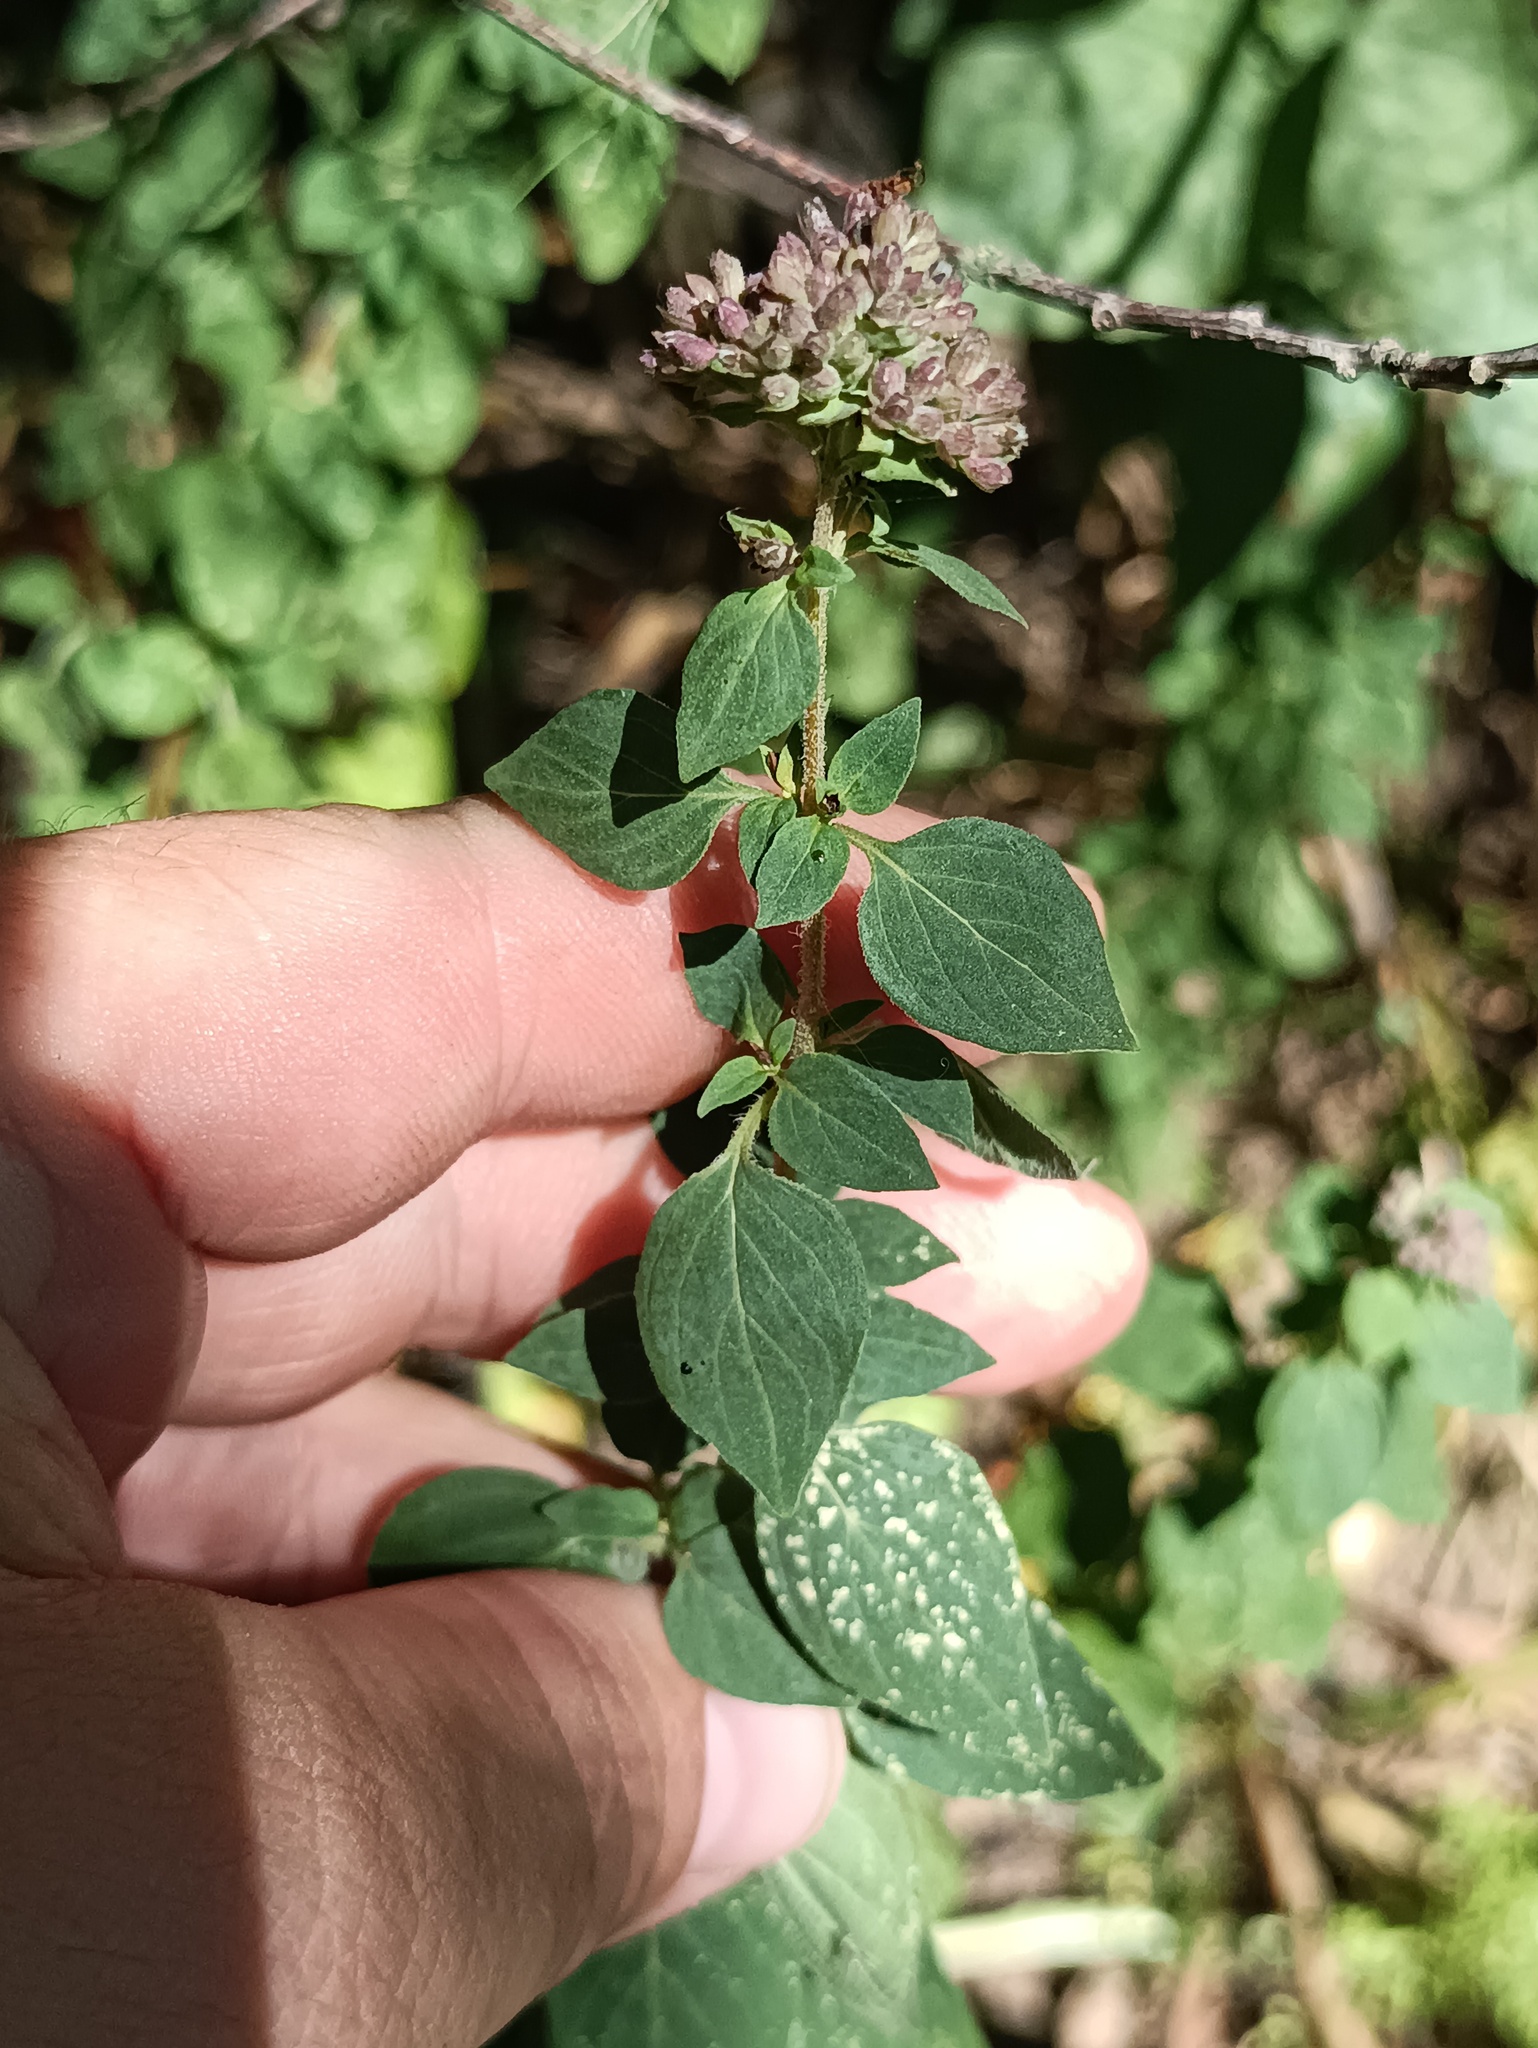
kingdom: Plantae
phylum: Tracheophyta
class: Magnoliopsida
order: Lamiales
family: Lamiaceae
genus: Origanum
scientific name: Origanum vulgare
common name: Wild marjoram
